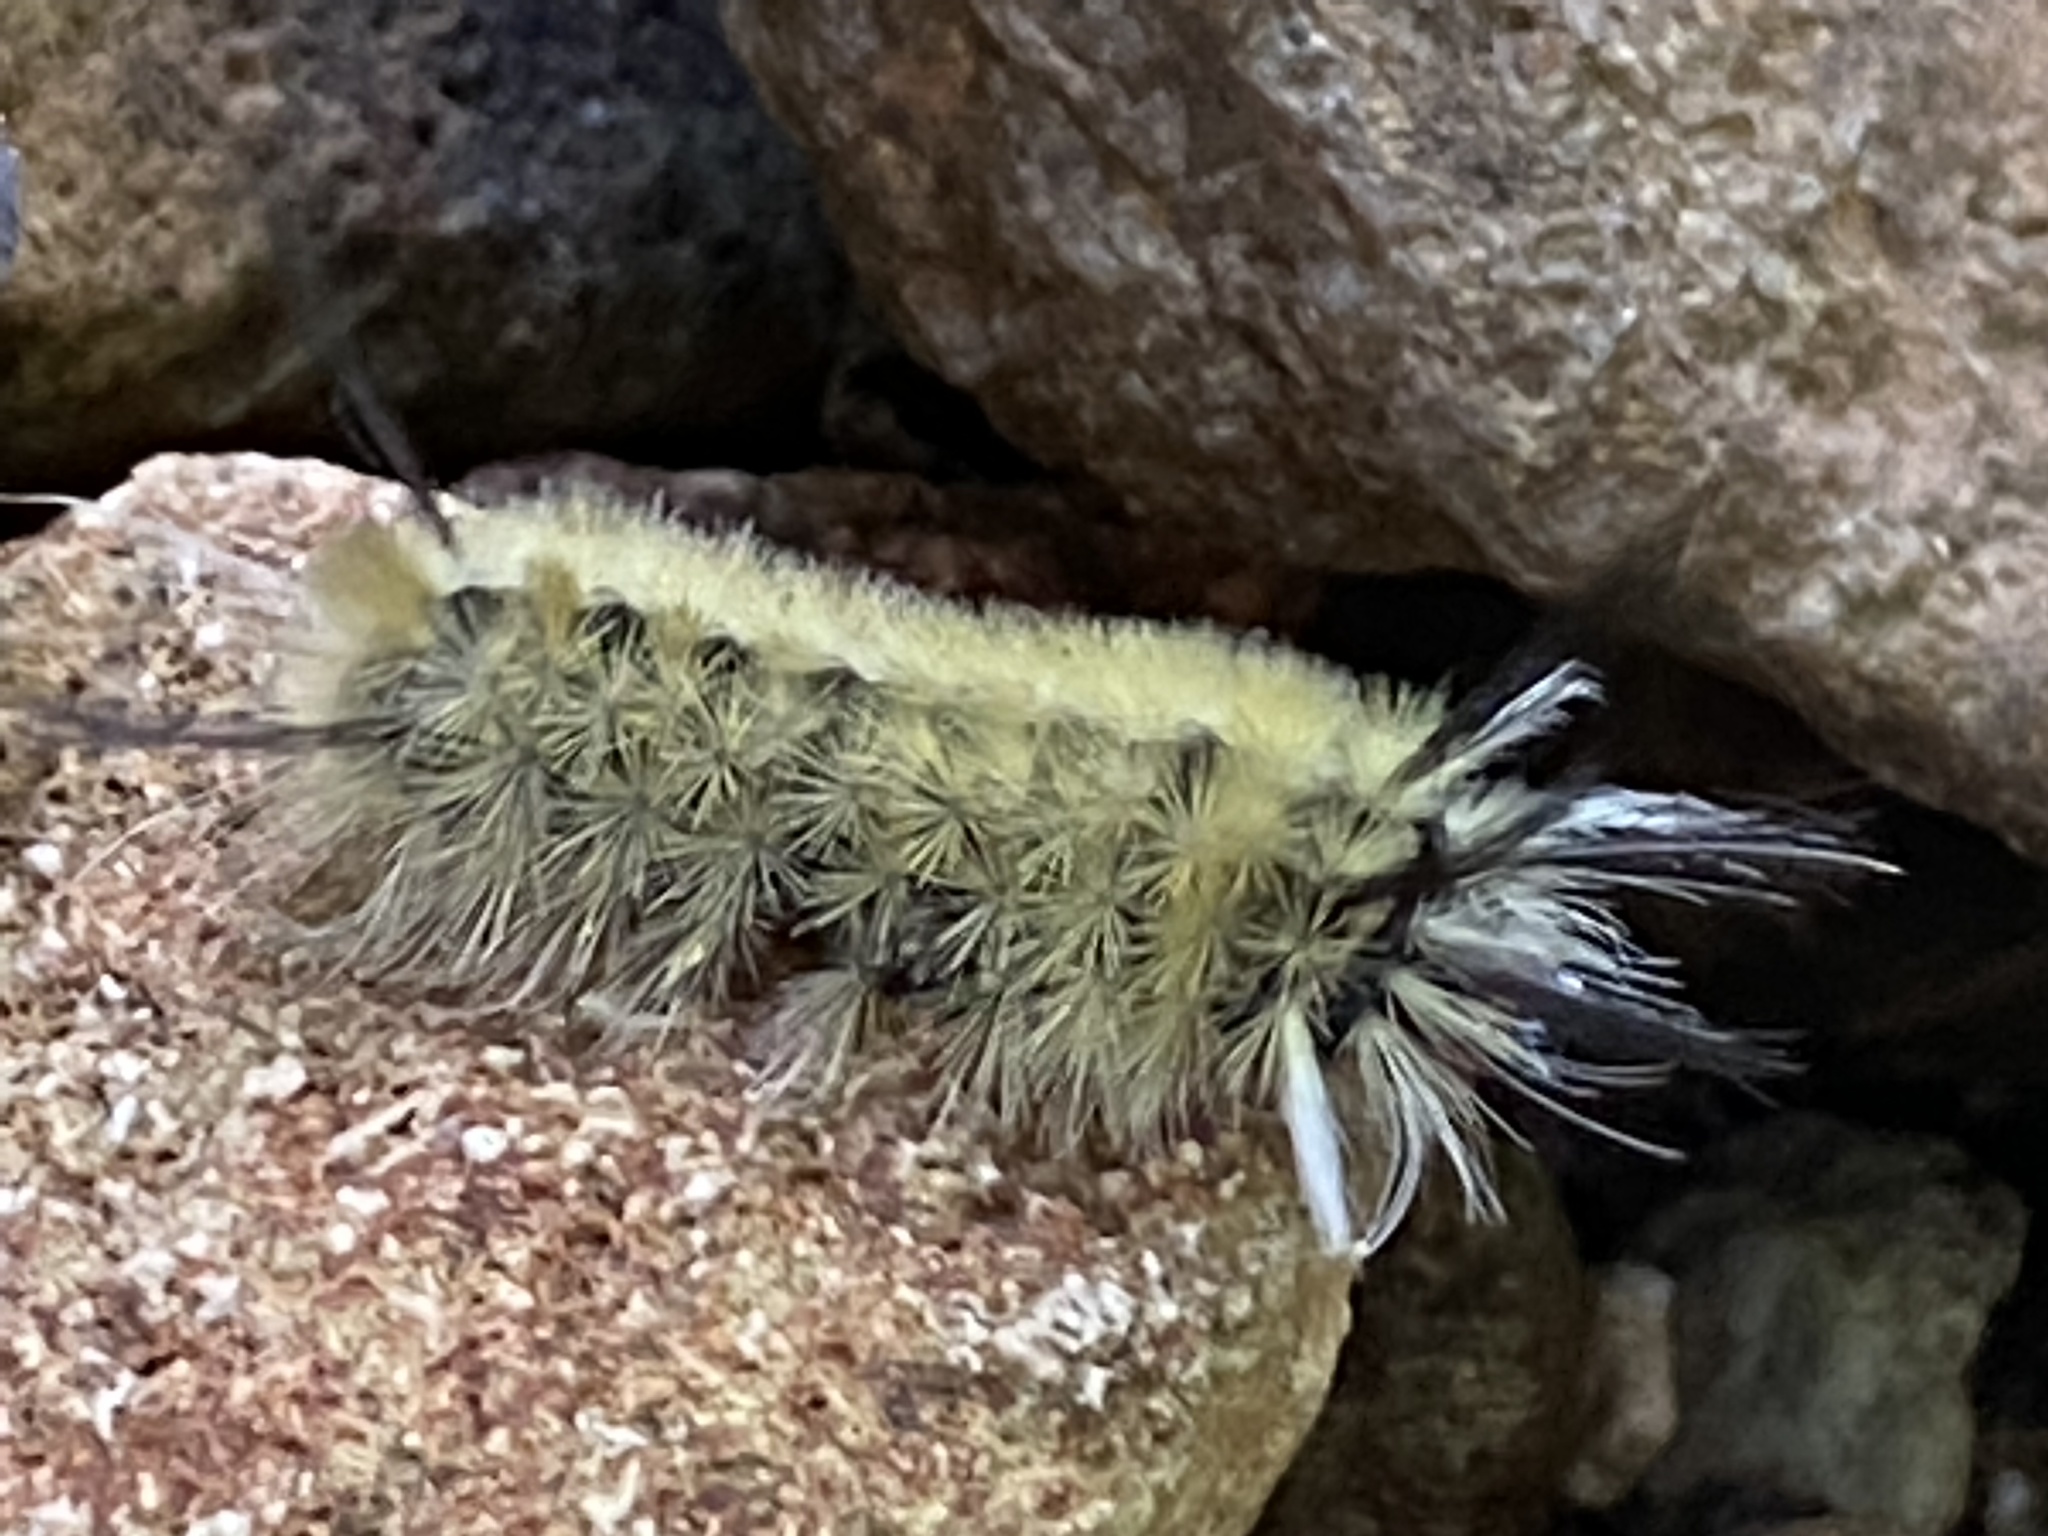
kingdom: Animalia
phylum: Arthropoda
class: Insecta
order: Lepidoptera
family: Erebidae
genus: Halysidota
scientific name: Halysidota tessellaris
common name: Banded tussock moth
